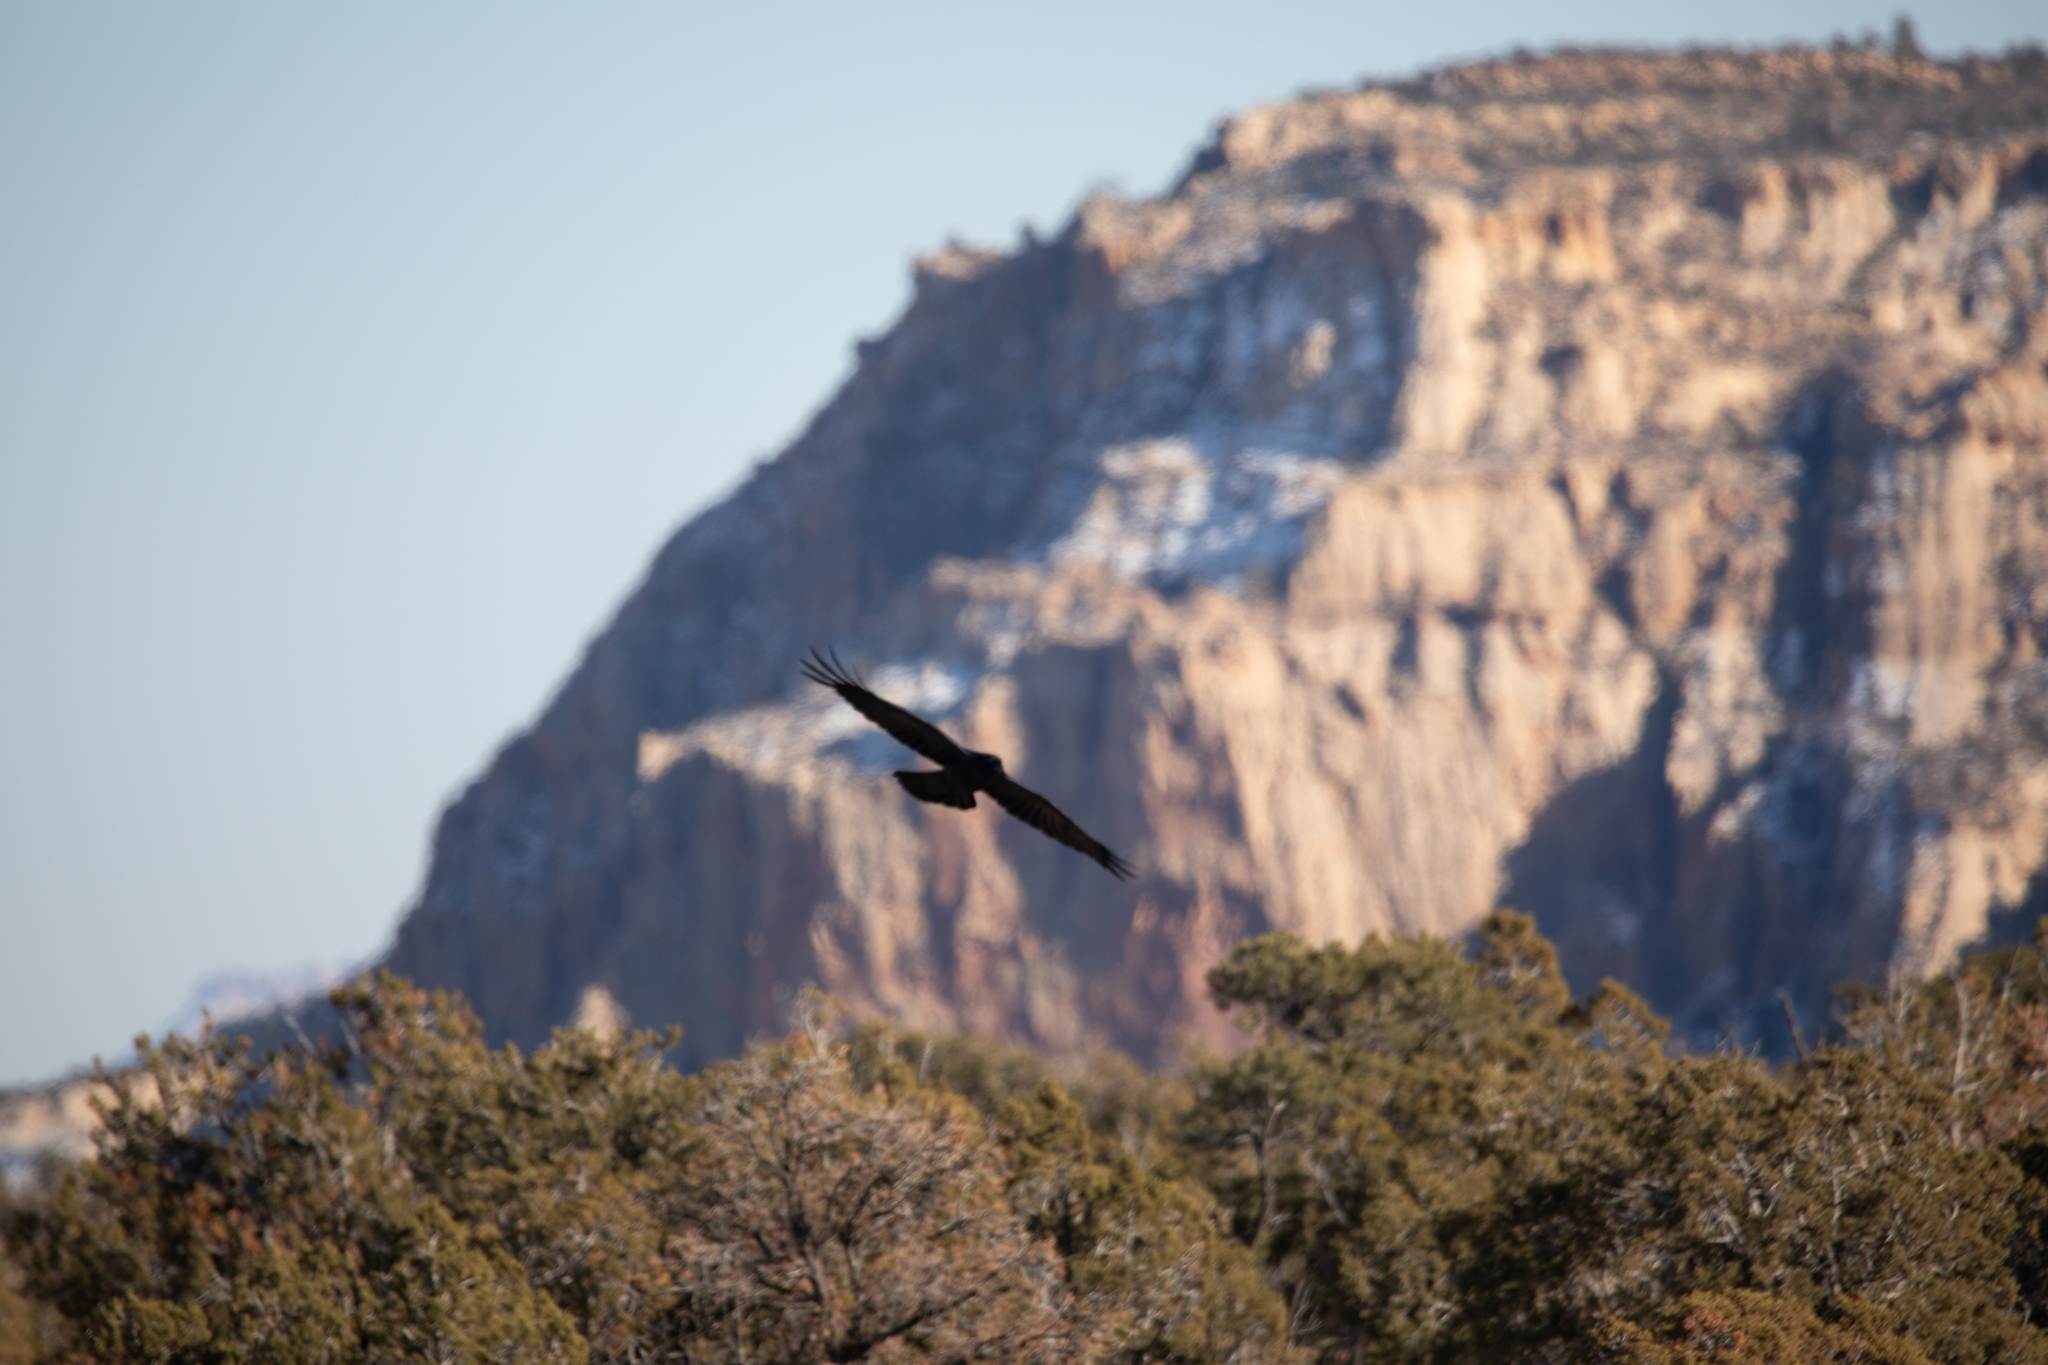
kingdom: Animalia
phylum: Chordata
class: Aves
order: Passeriformes
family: Corvidae
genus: Corvus
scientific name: Corvus corax
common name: Common raven
